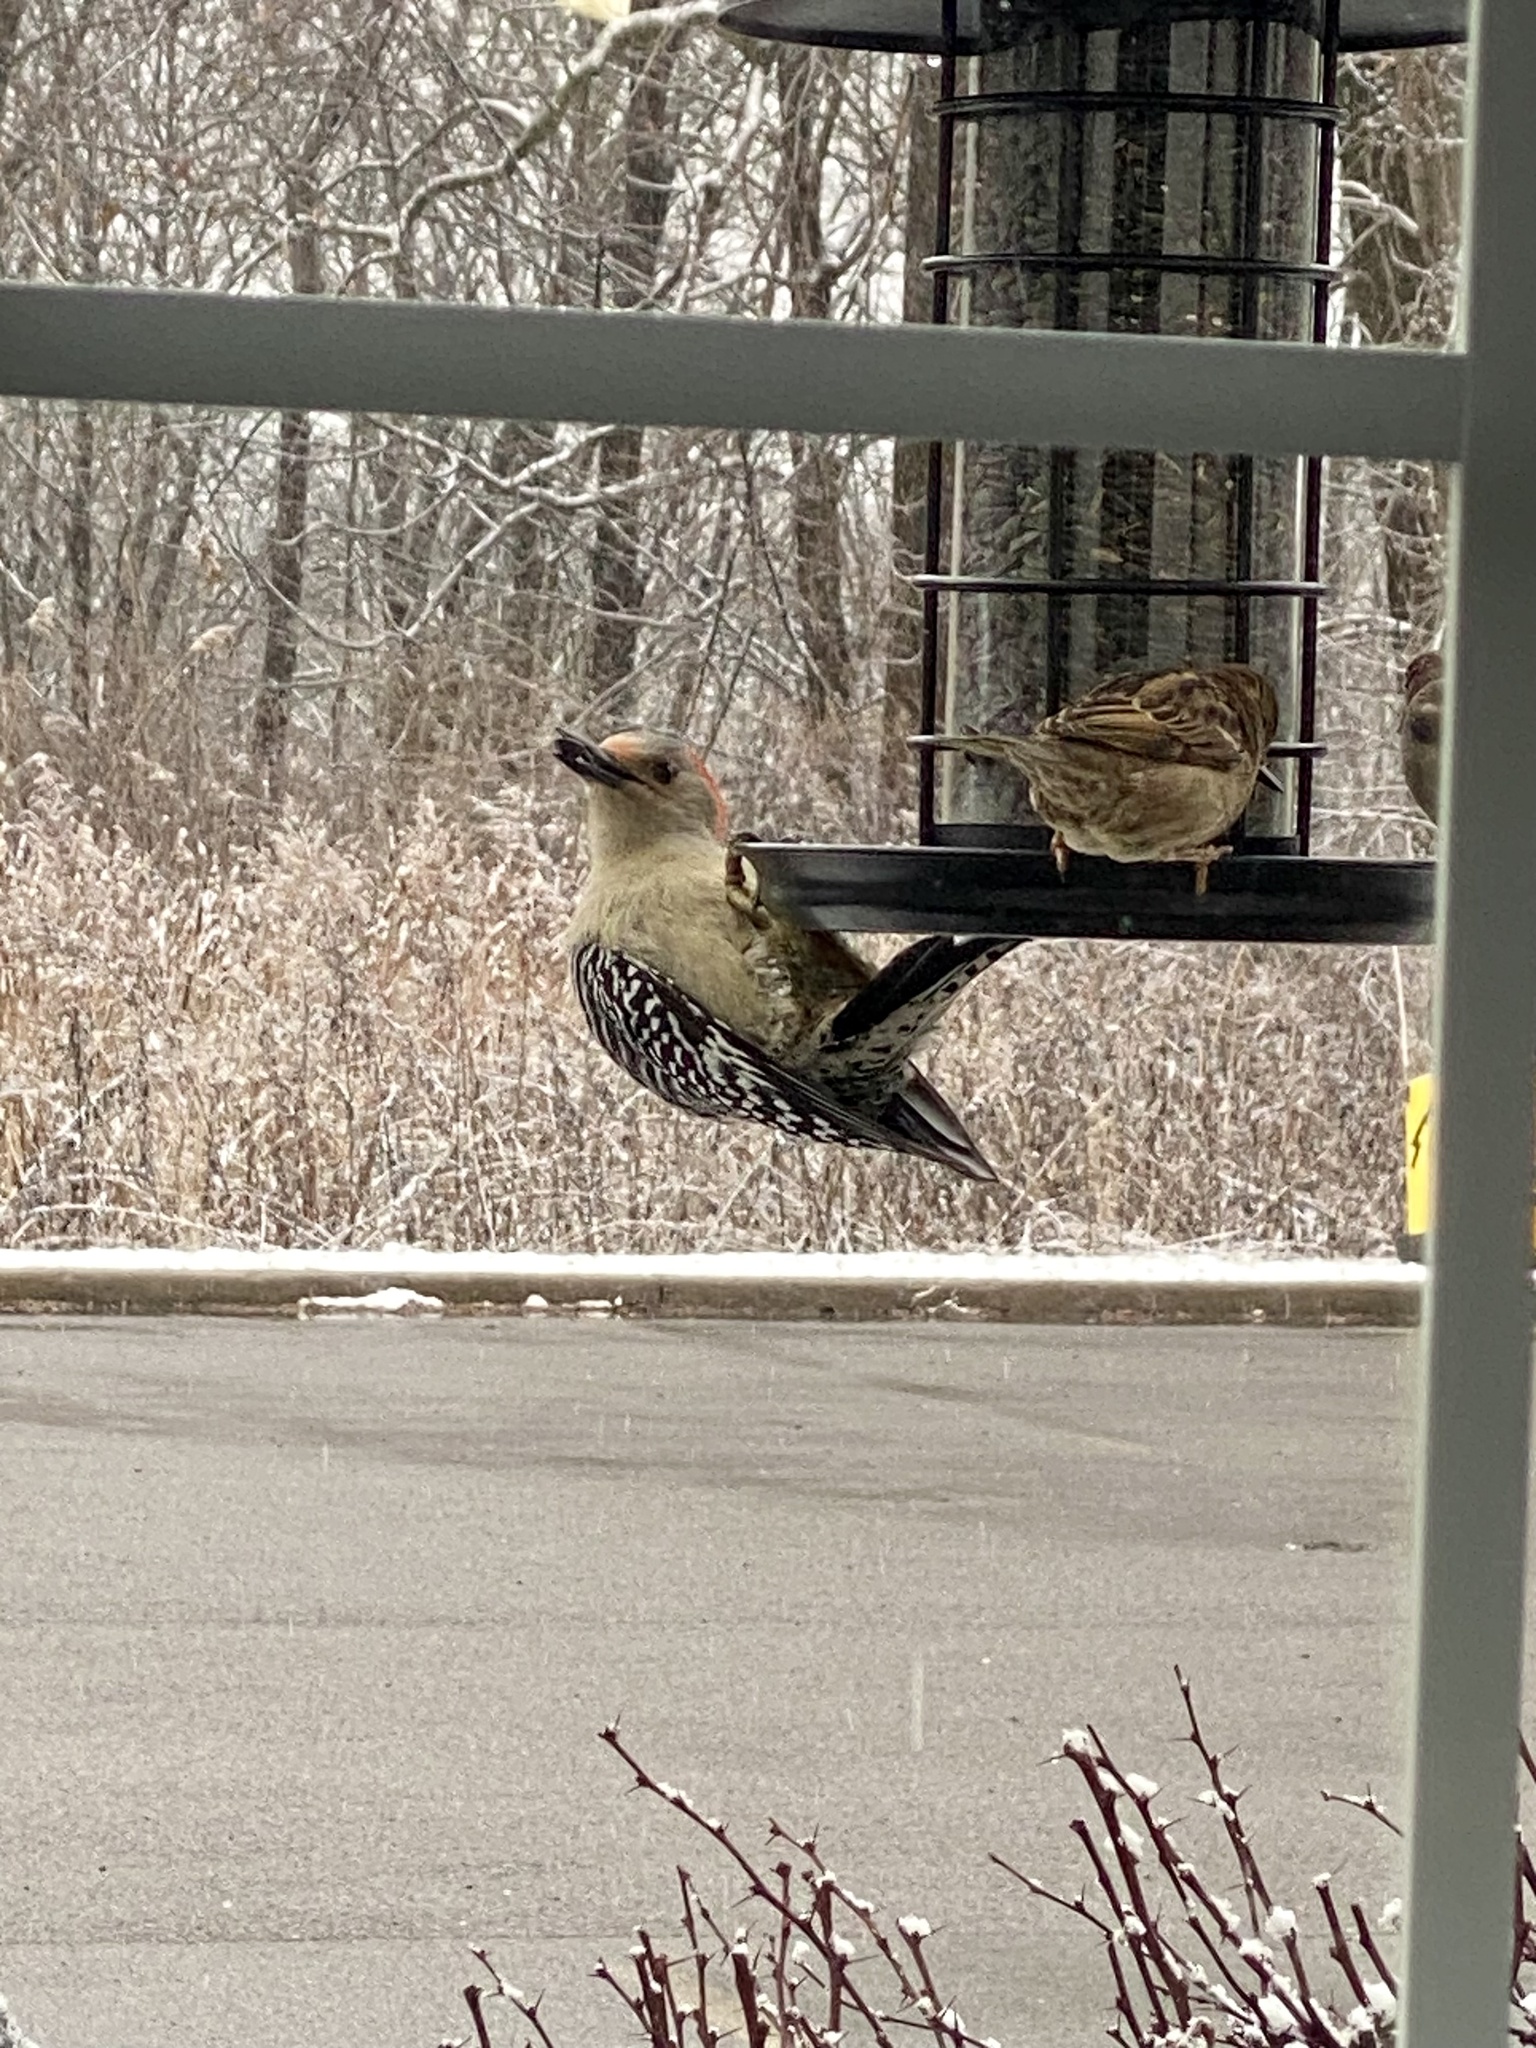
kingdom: Animalia
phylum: Chordata
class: Aves
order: Piciformes
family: Picidae
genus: Melanerpes
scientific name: Melanerpes carolinus
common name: Red-bellied woodpecker
